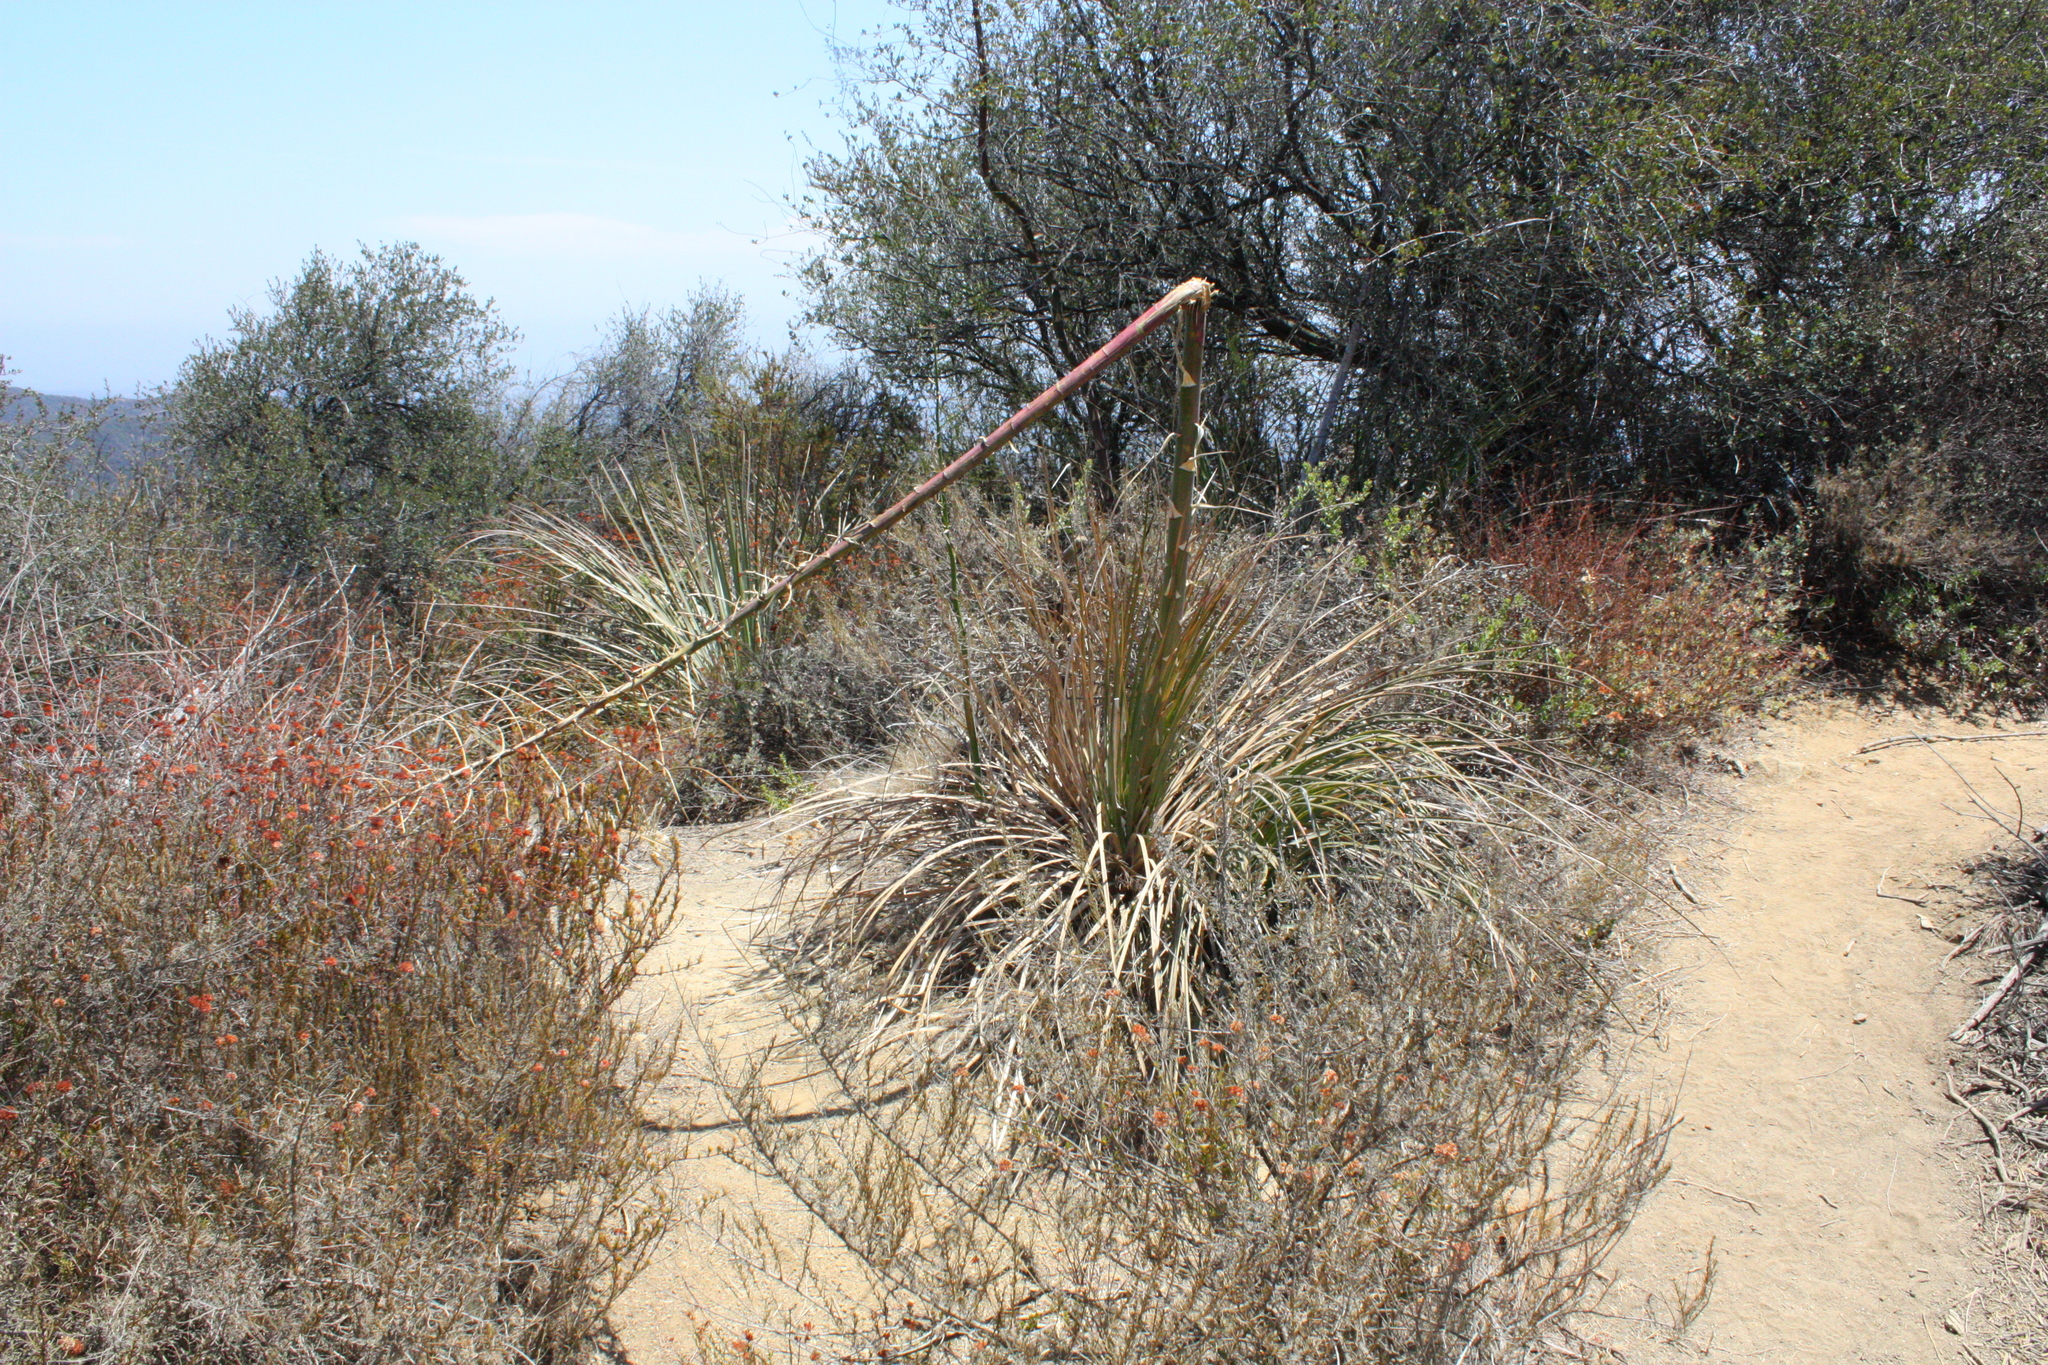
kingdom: Plantae
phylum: Tracheophyta
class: Liliopsida
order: Asparagales
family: Asparagaceae
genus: Hesperoyucca
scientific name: Hesperoyucca whipplei
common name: Our lord's-candle
